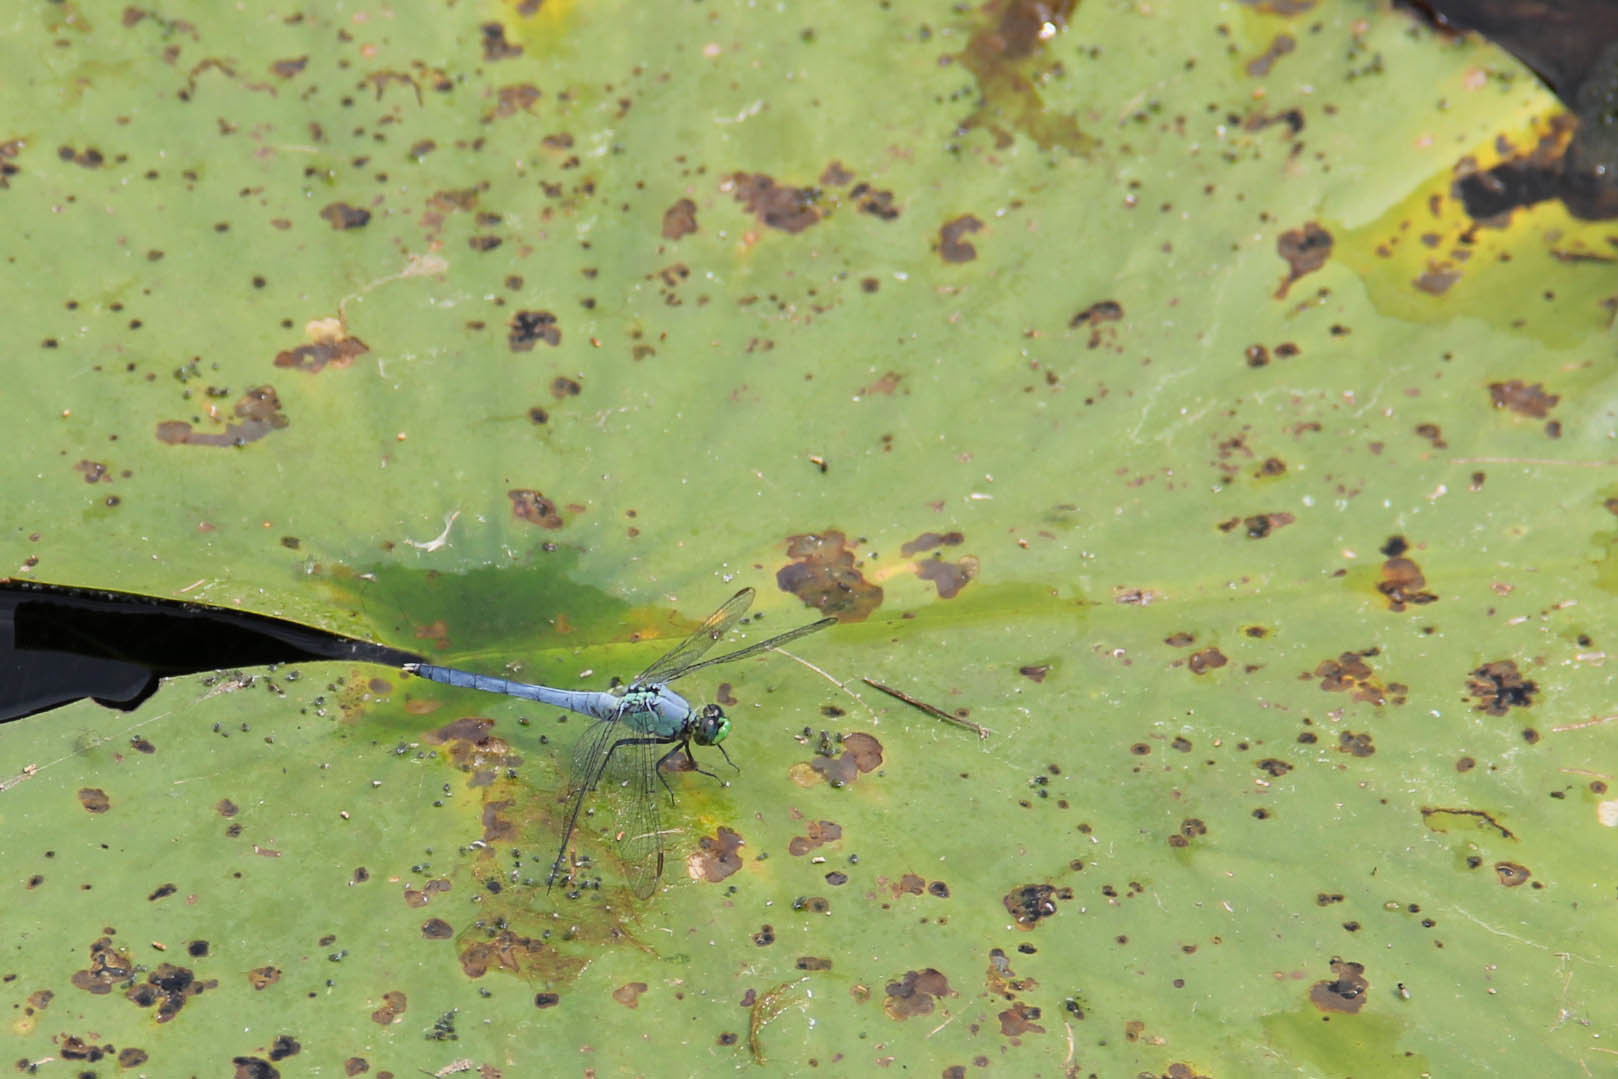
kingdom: Animalia
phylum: Arthropoda
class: Insecta
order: Odonata
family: Libellulidae
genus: Erythemis
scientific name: Erythemis simplicicollis
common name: Eastern pondhawk
